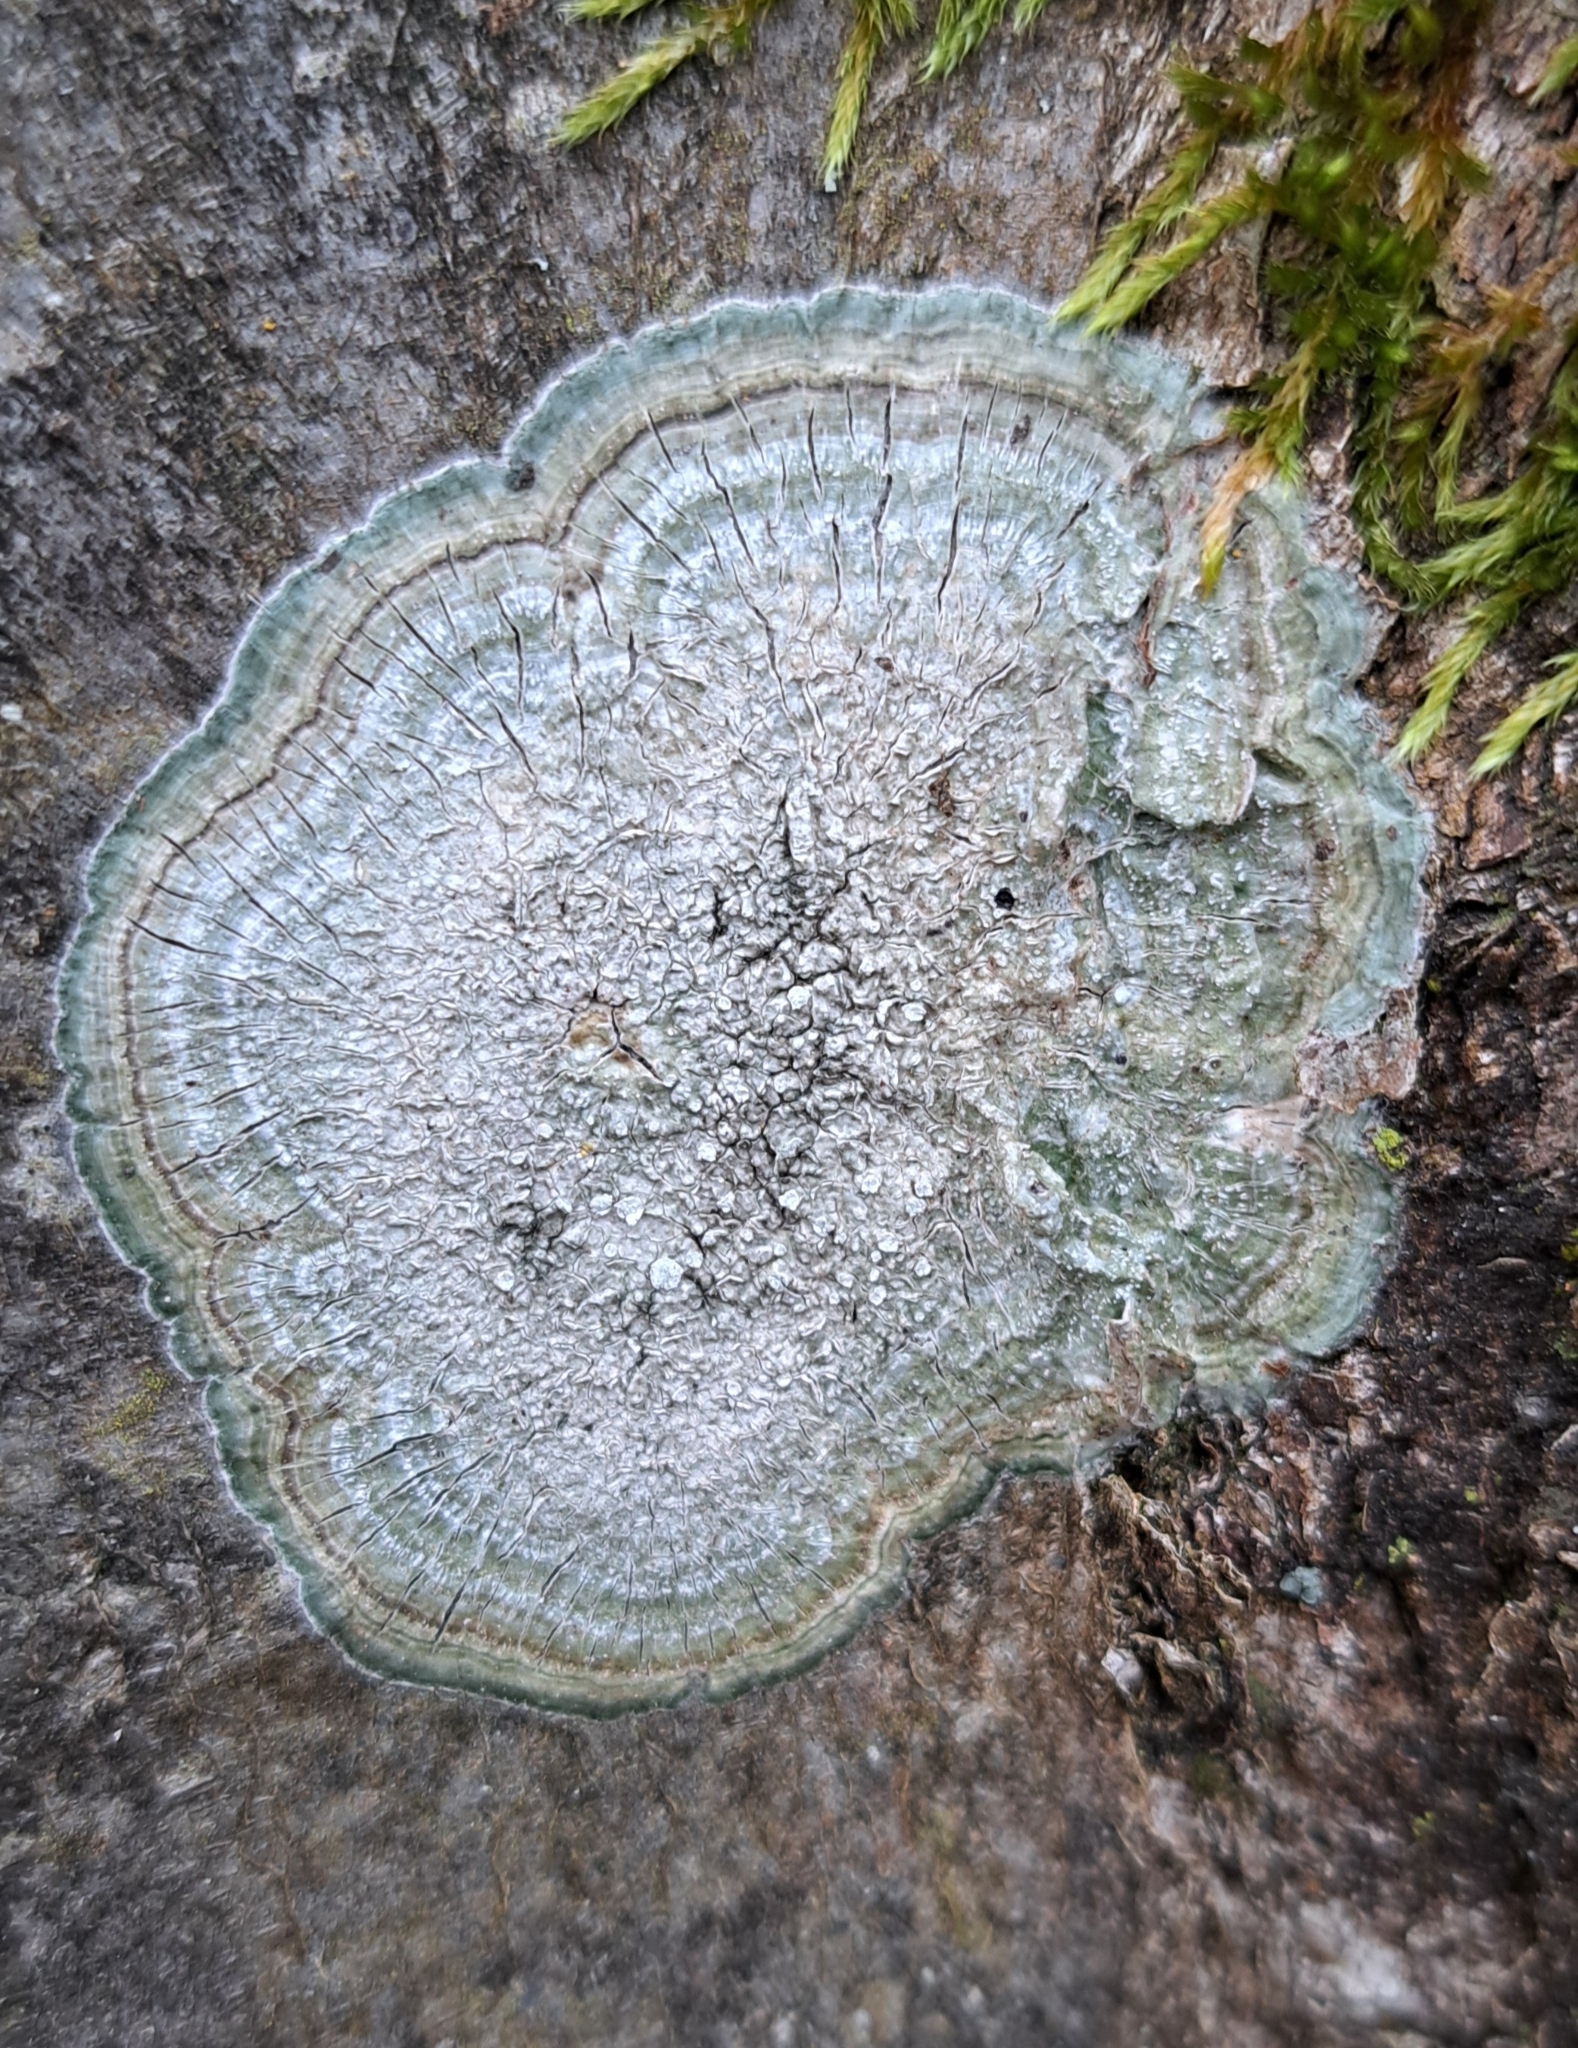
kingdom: Fungi
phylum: Ascomycota
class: Lecanoromycetes
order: Pertusariales
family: Pertusariaceae
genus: Lepra
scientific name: Lepra albescens
